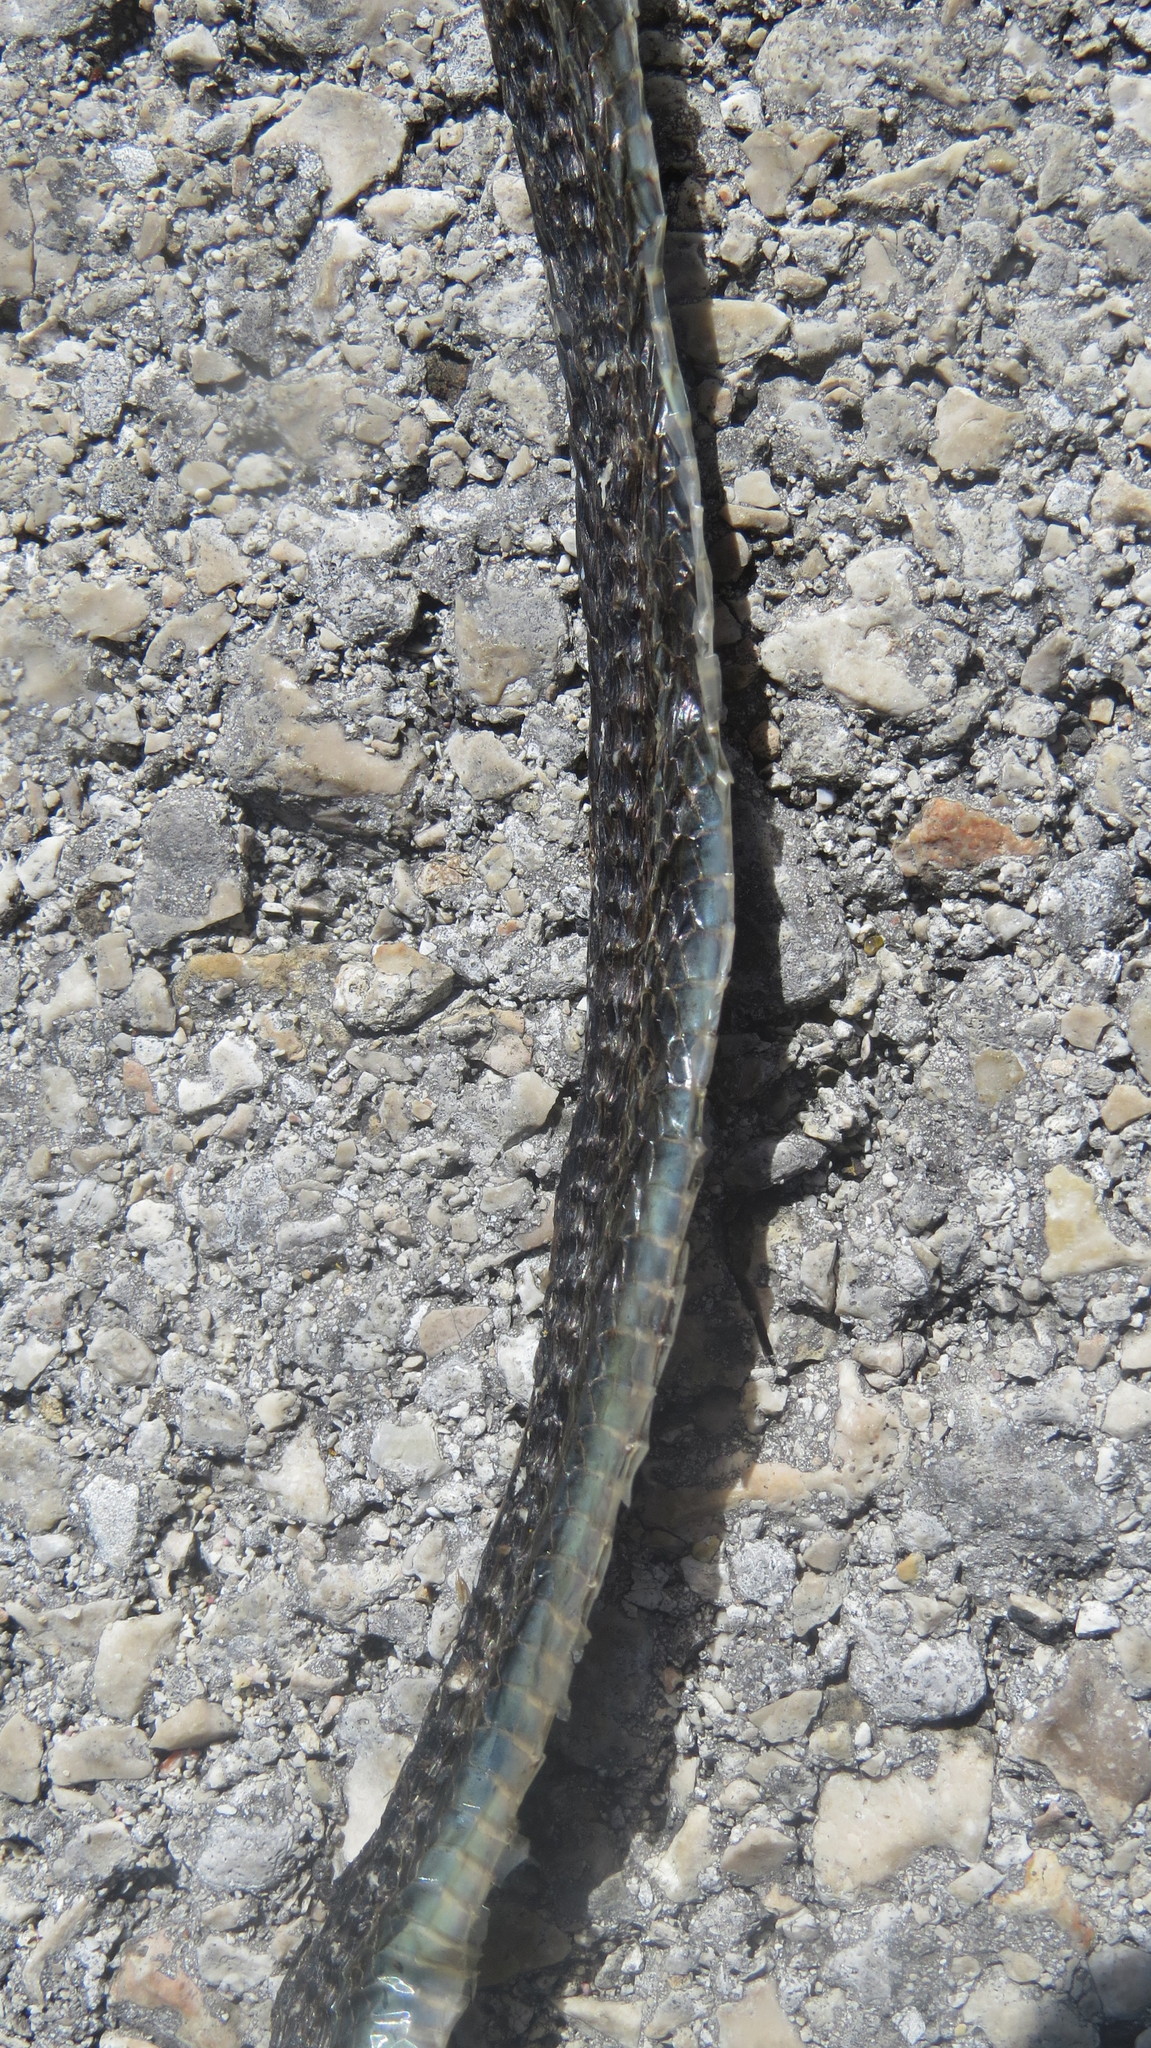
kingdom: Animalia
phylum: Chordata
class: Squamata
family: Colubridae
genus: Thamnophis
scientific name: Thamnophis proximus
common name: Western ribbon snake
